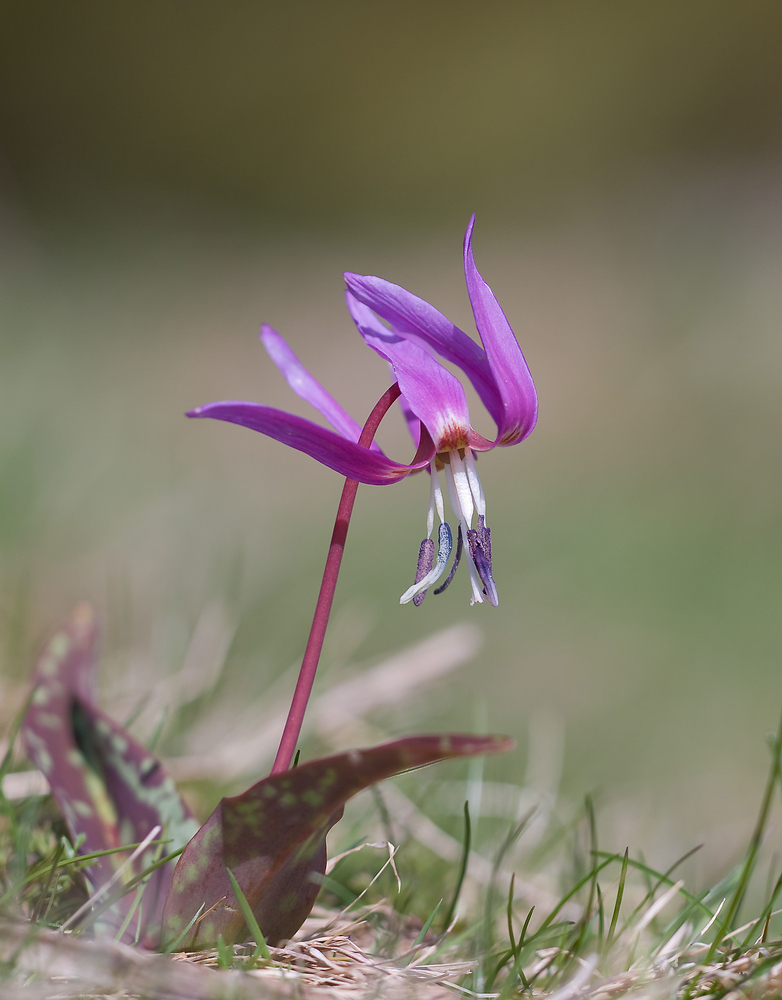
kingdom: Plantae
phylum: Tracheophyta
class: Liliopsida
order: Liliales
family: Liliaceae
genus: Erythronium
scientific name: Erythronium dens-canis
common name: Dog's-tooth-violet
